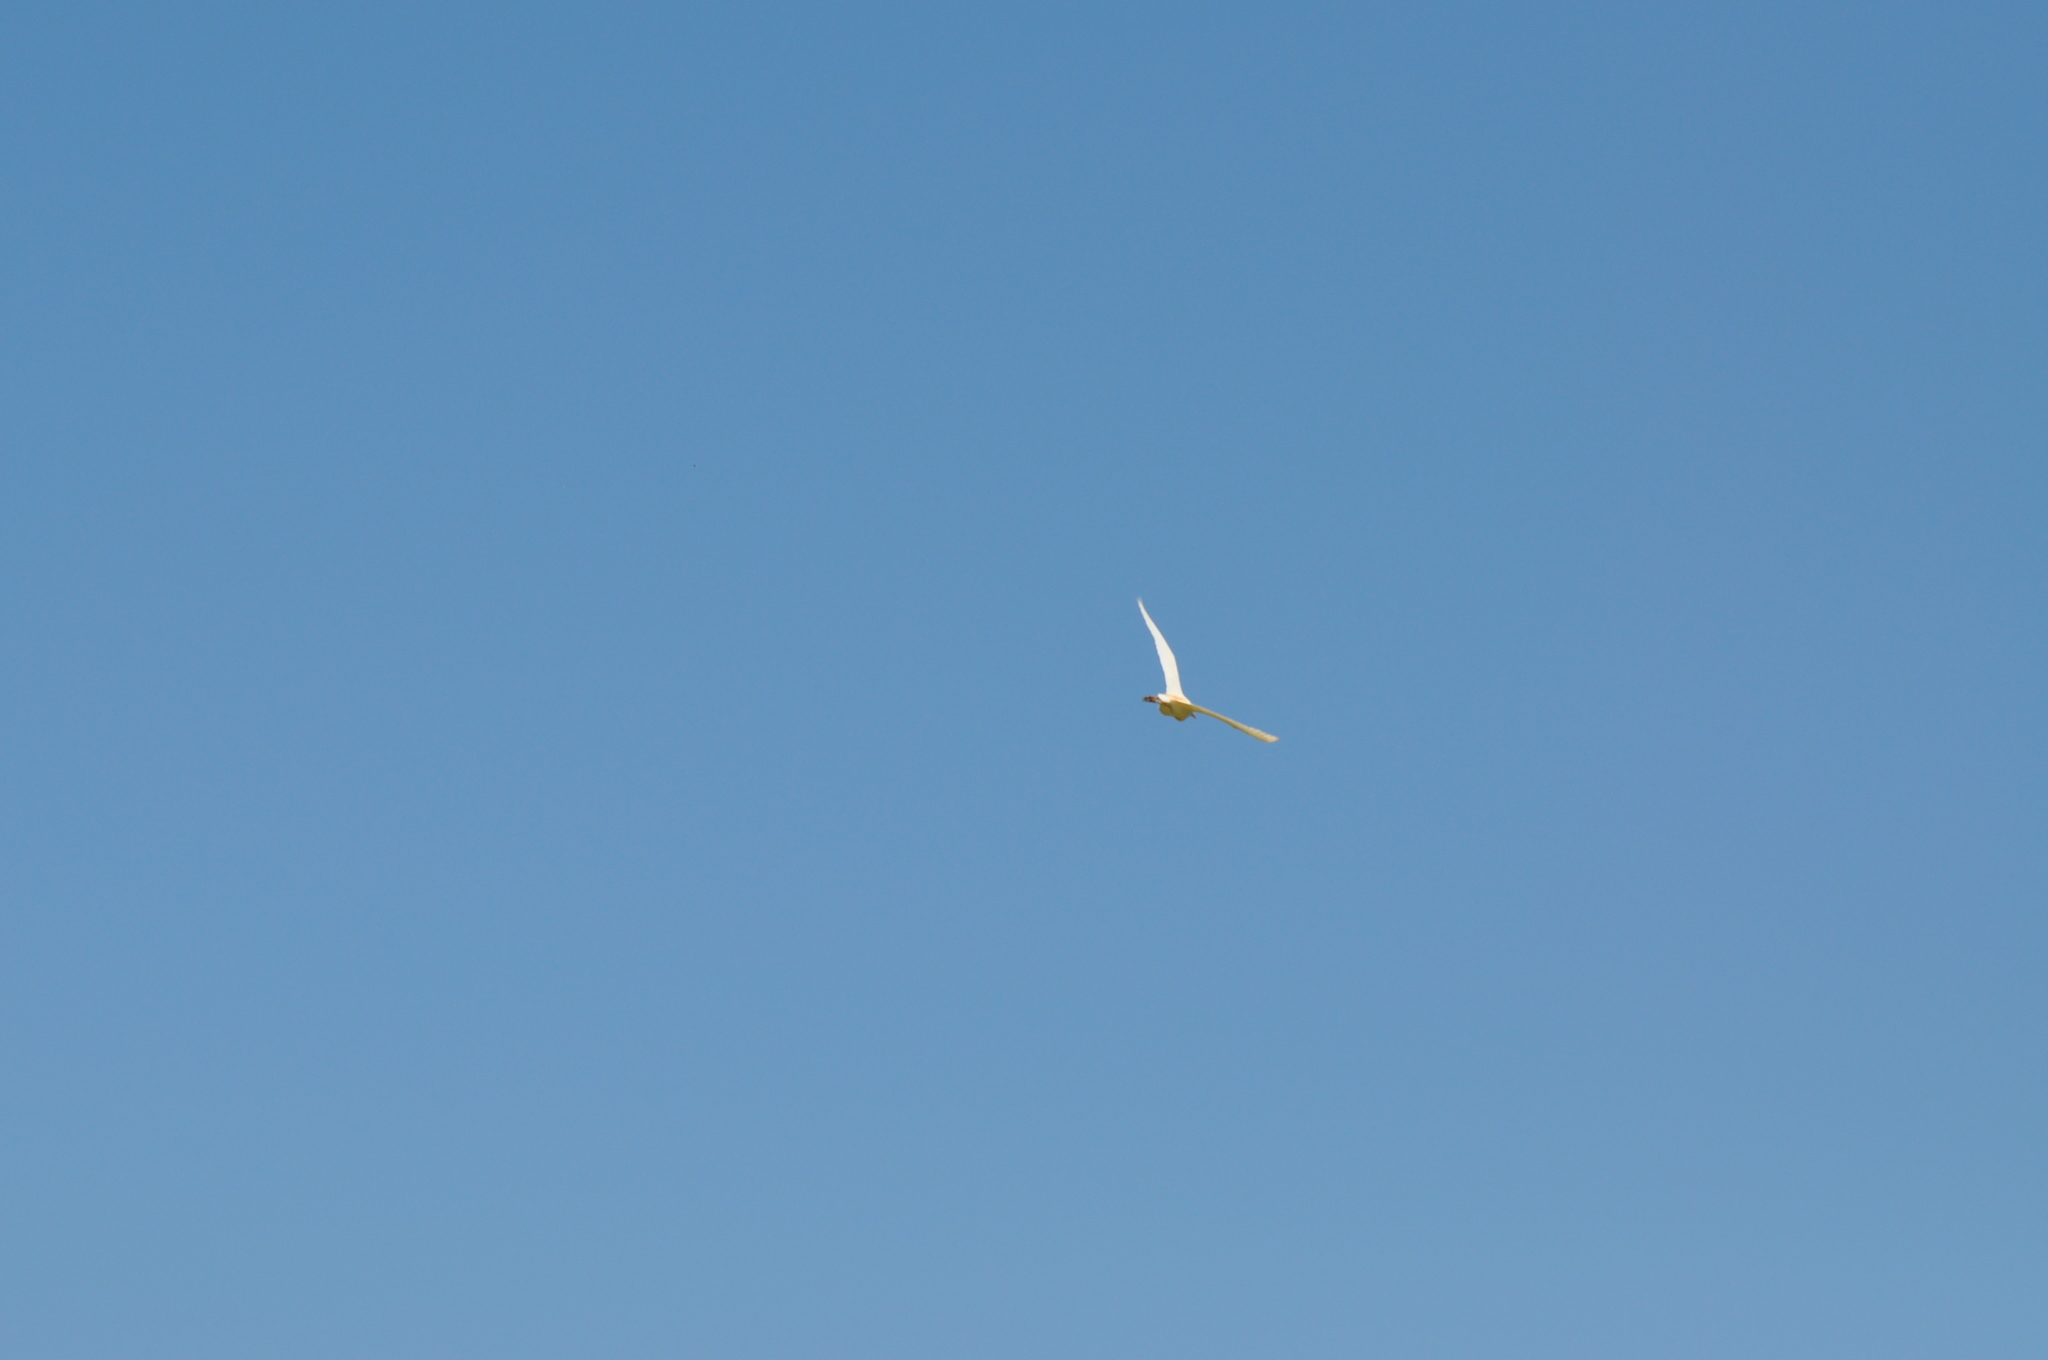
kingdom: Animalia
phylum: Chordata
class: Aves
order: Pelecaniformes
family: Ardeidae
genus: Bubulcus
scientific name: Bubulcus ibis
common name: Cattle egret
